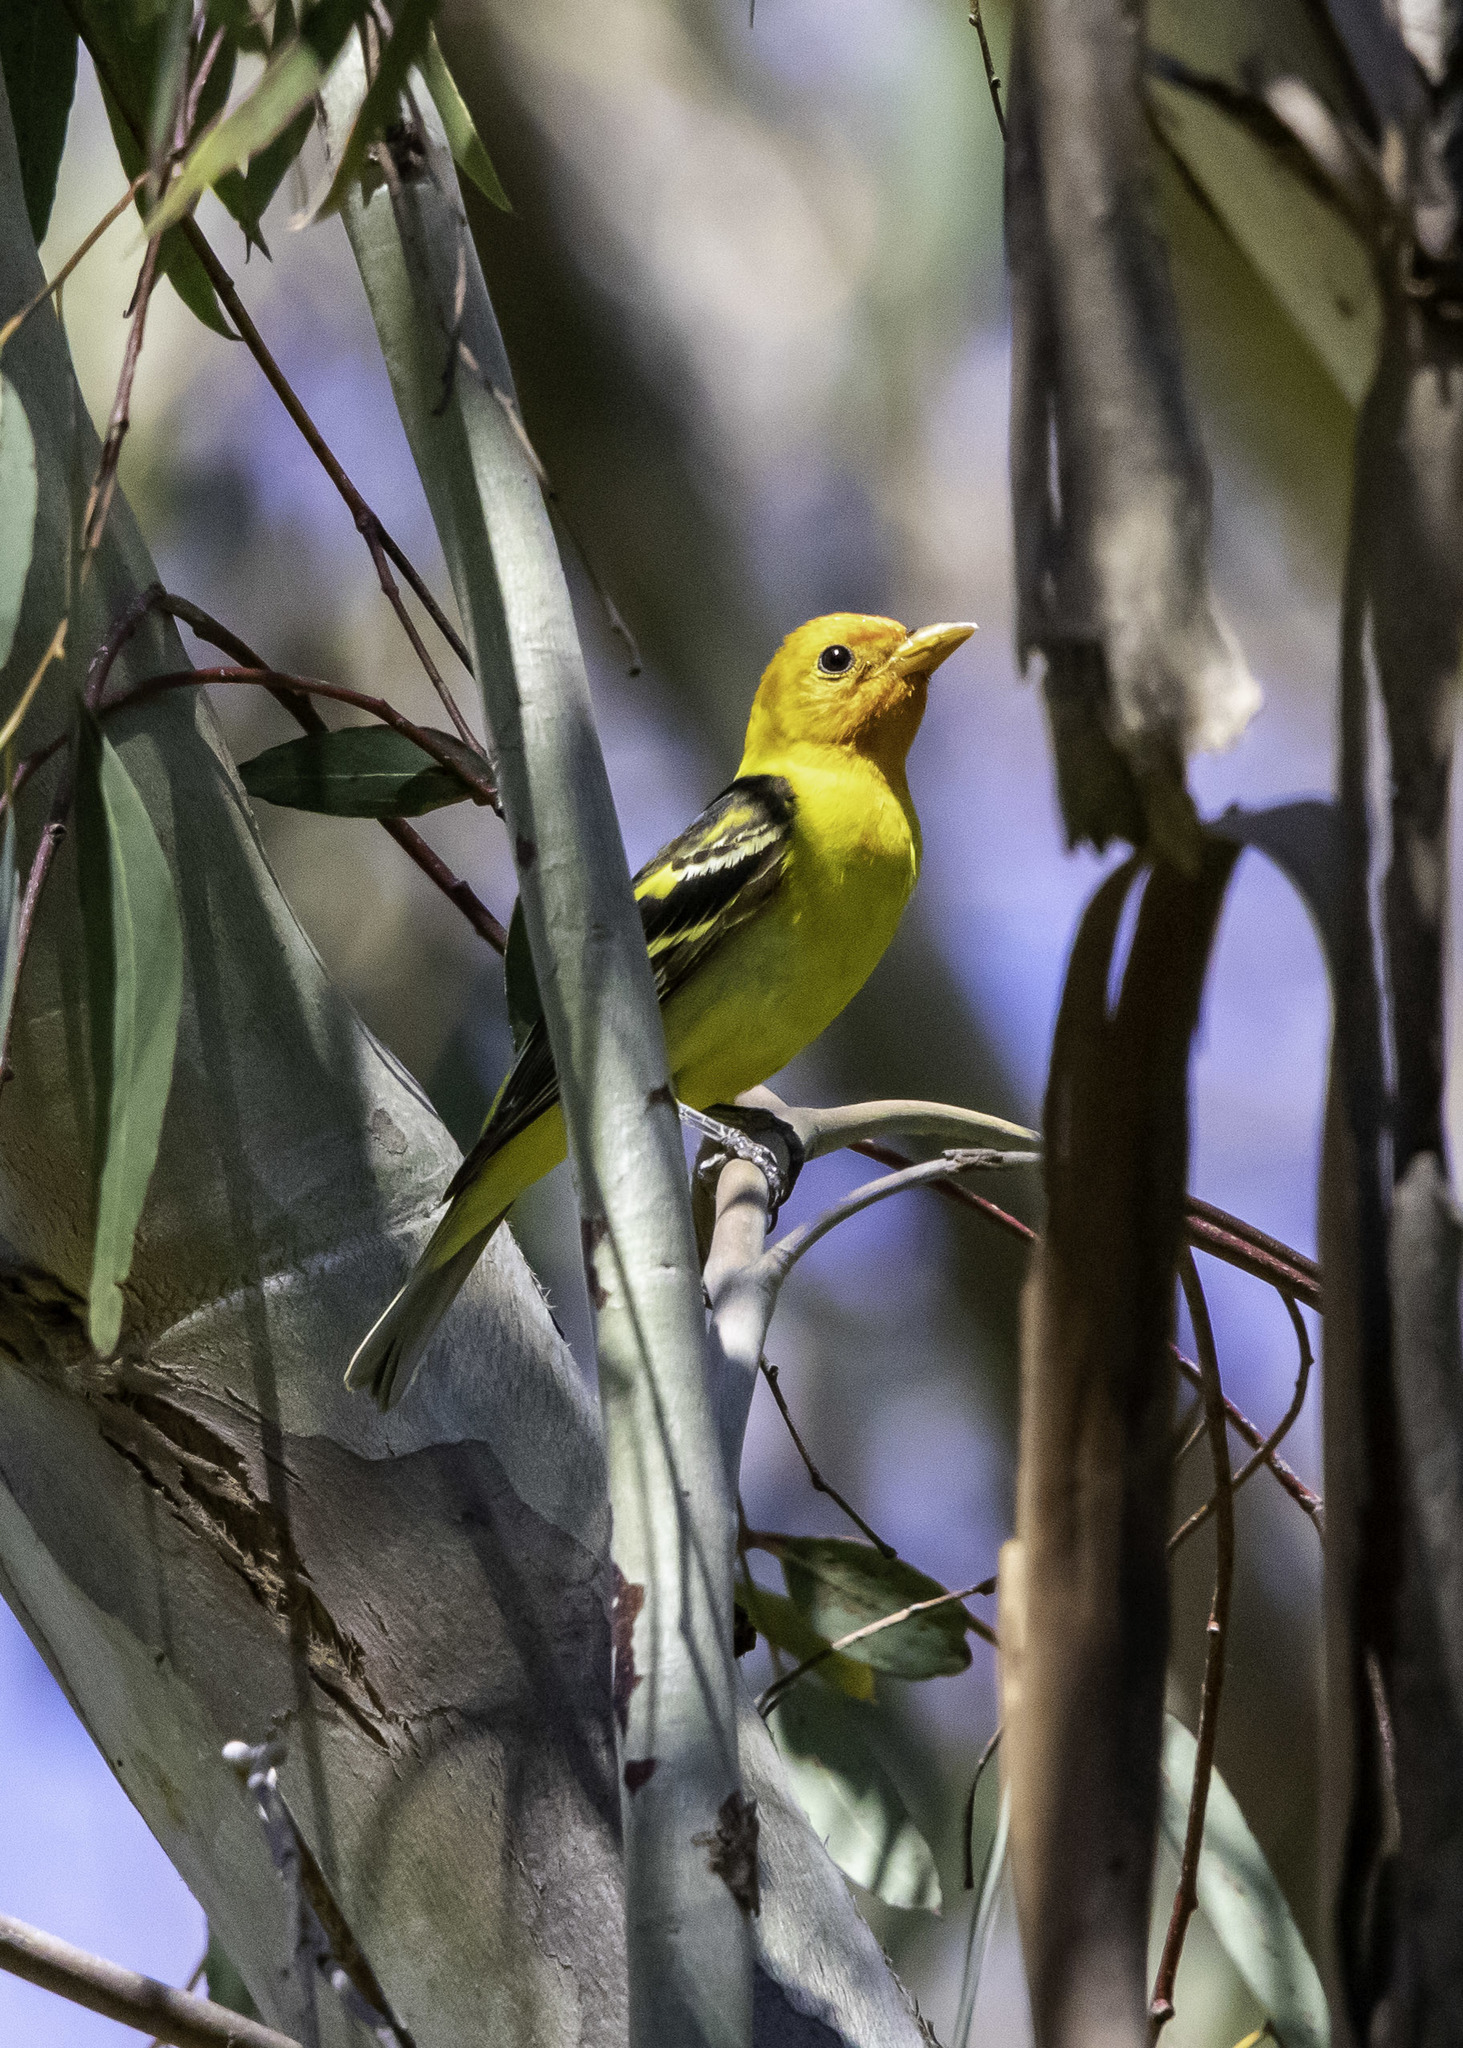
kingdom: Animalia
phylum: Chordata
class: Aves
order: Passeriformes
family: Cardinalidae
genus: Piranga
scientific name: Piranga ludoviciana
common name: Western tanager
